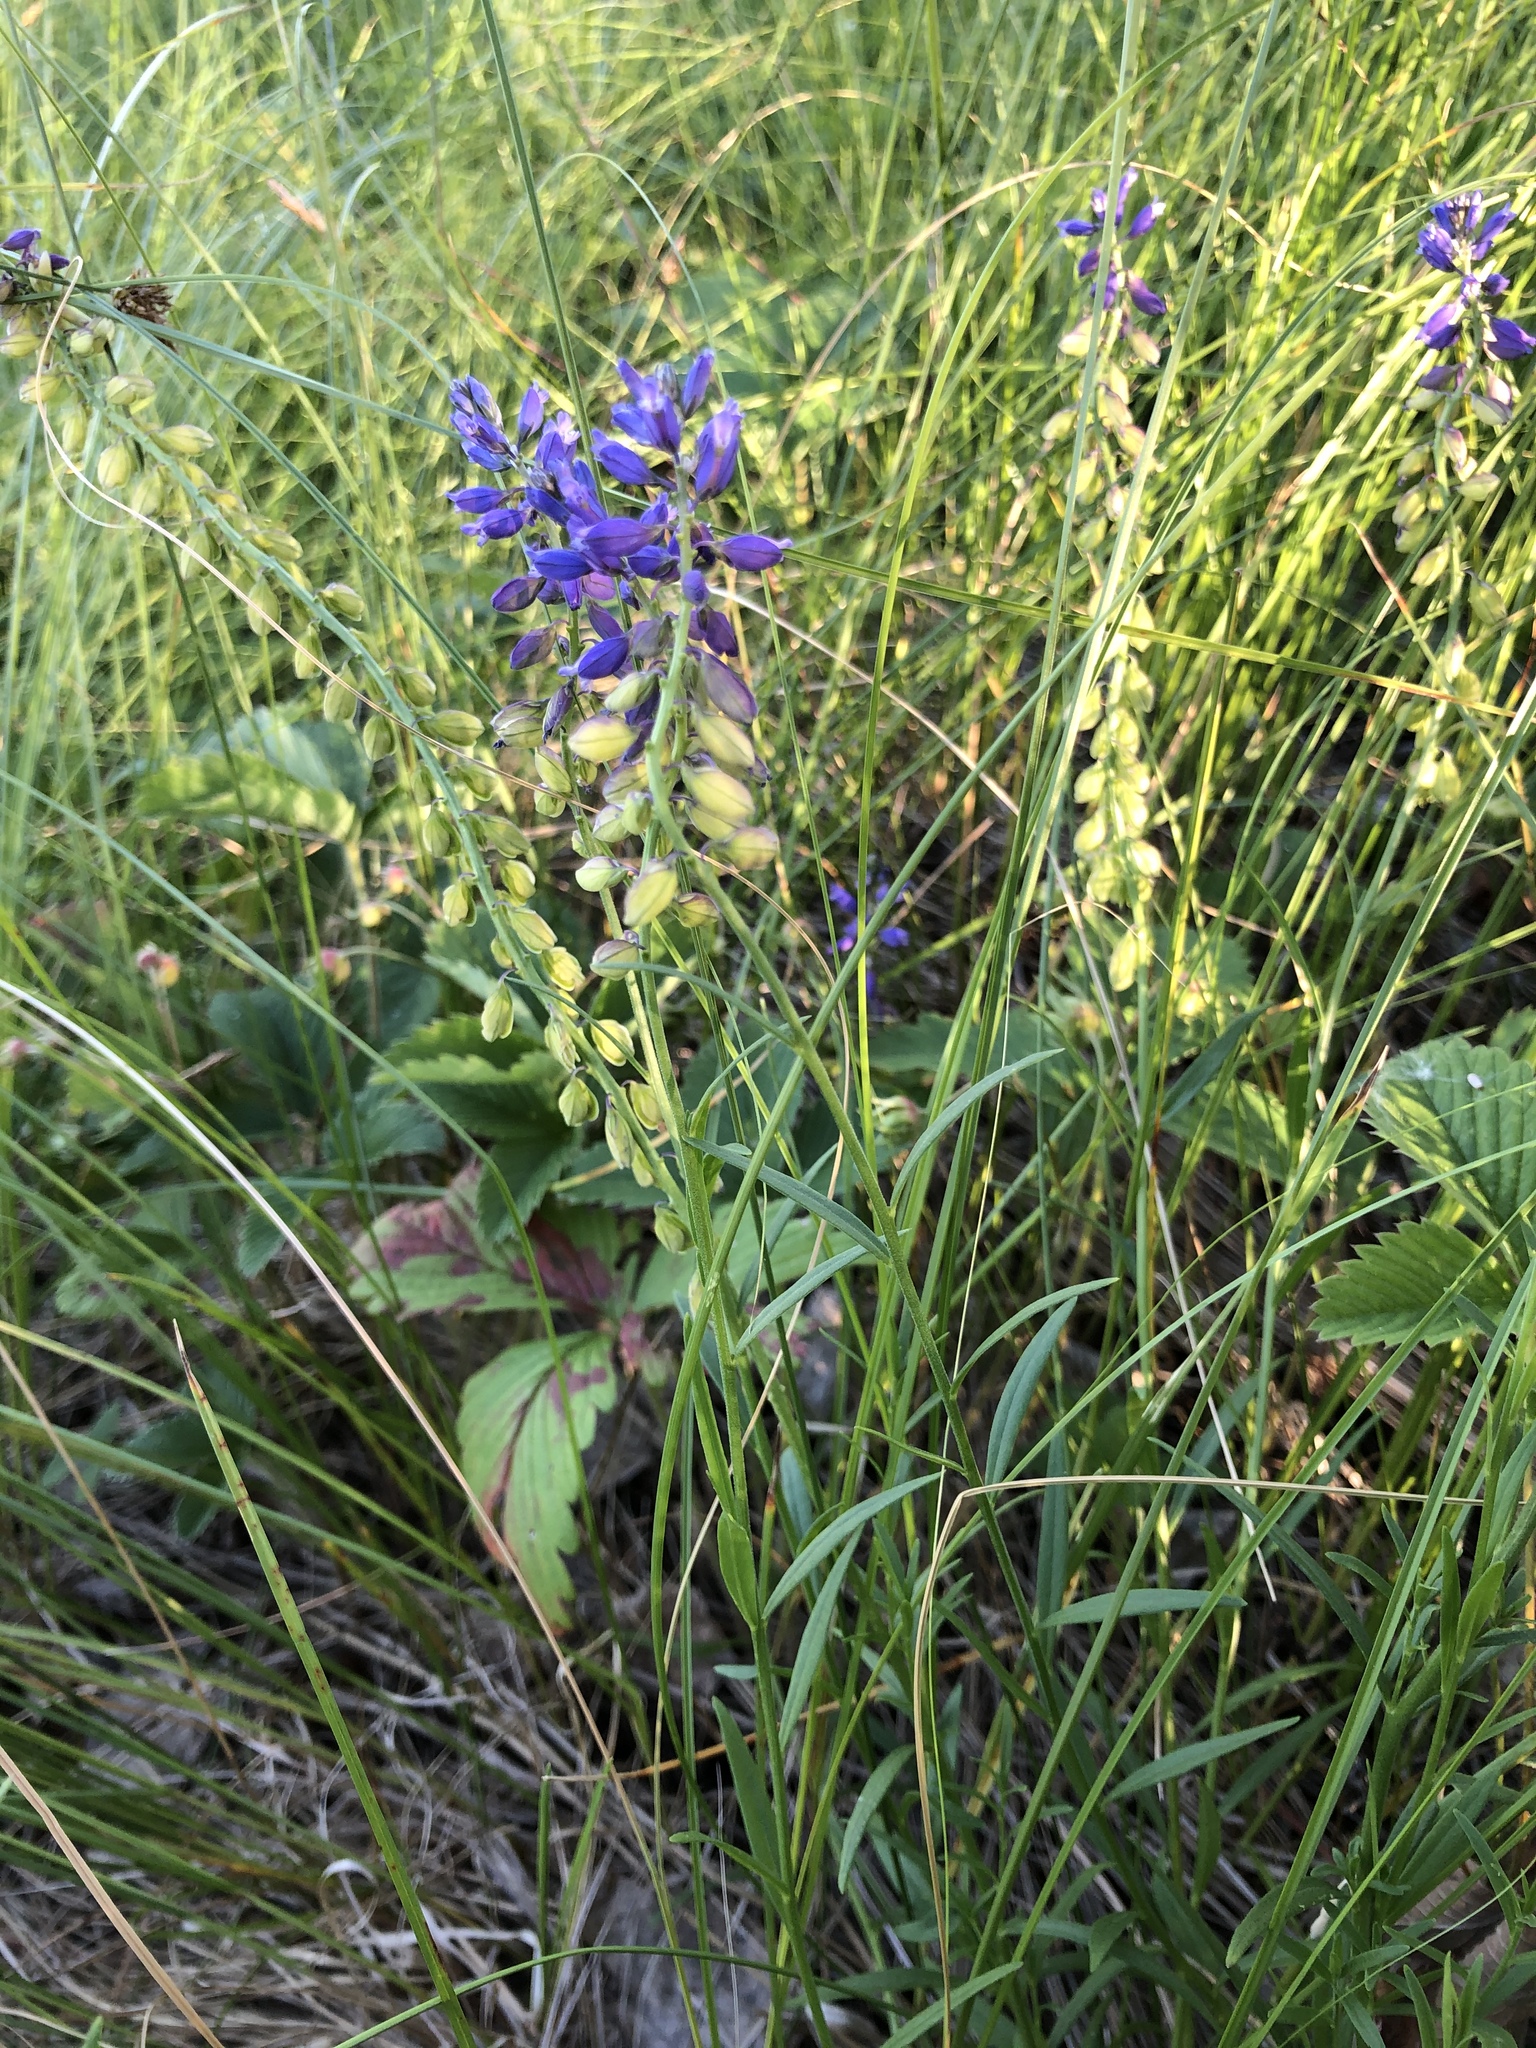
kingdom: Plantae
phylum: Tracheophyta
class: Magnoliopsida
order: Fabales
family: Polygalaceae
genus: Polygala
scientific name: Polygala comosa
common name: Tufted milkwort
